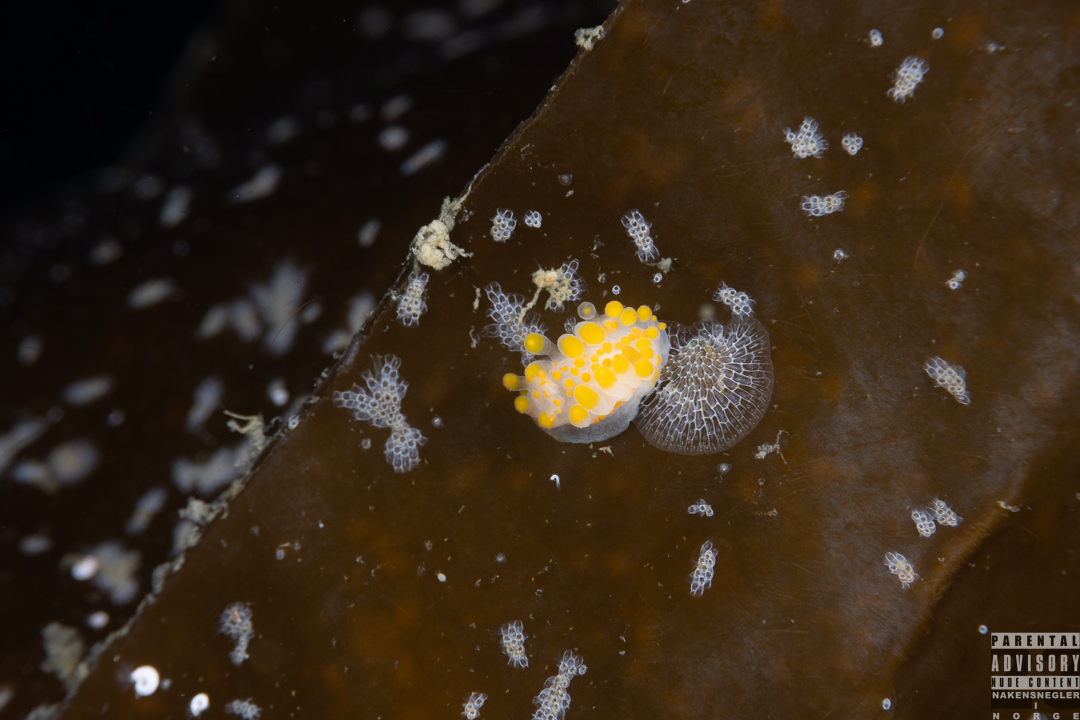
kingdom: Animalia
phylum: Mollusca
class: Gastropoda
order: Nudibranchia
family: Polyceridae
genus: Limacia
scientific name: Limacia clavigera
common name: Orange-clubbed sea slug
